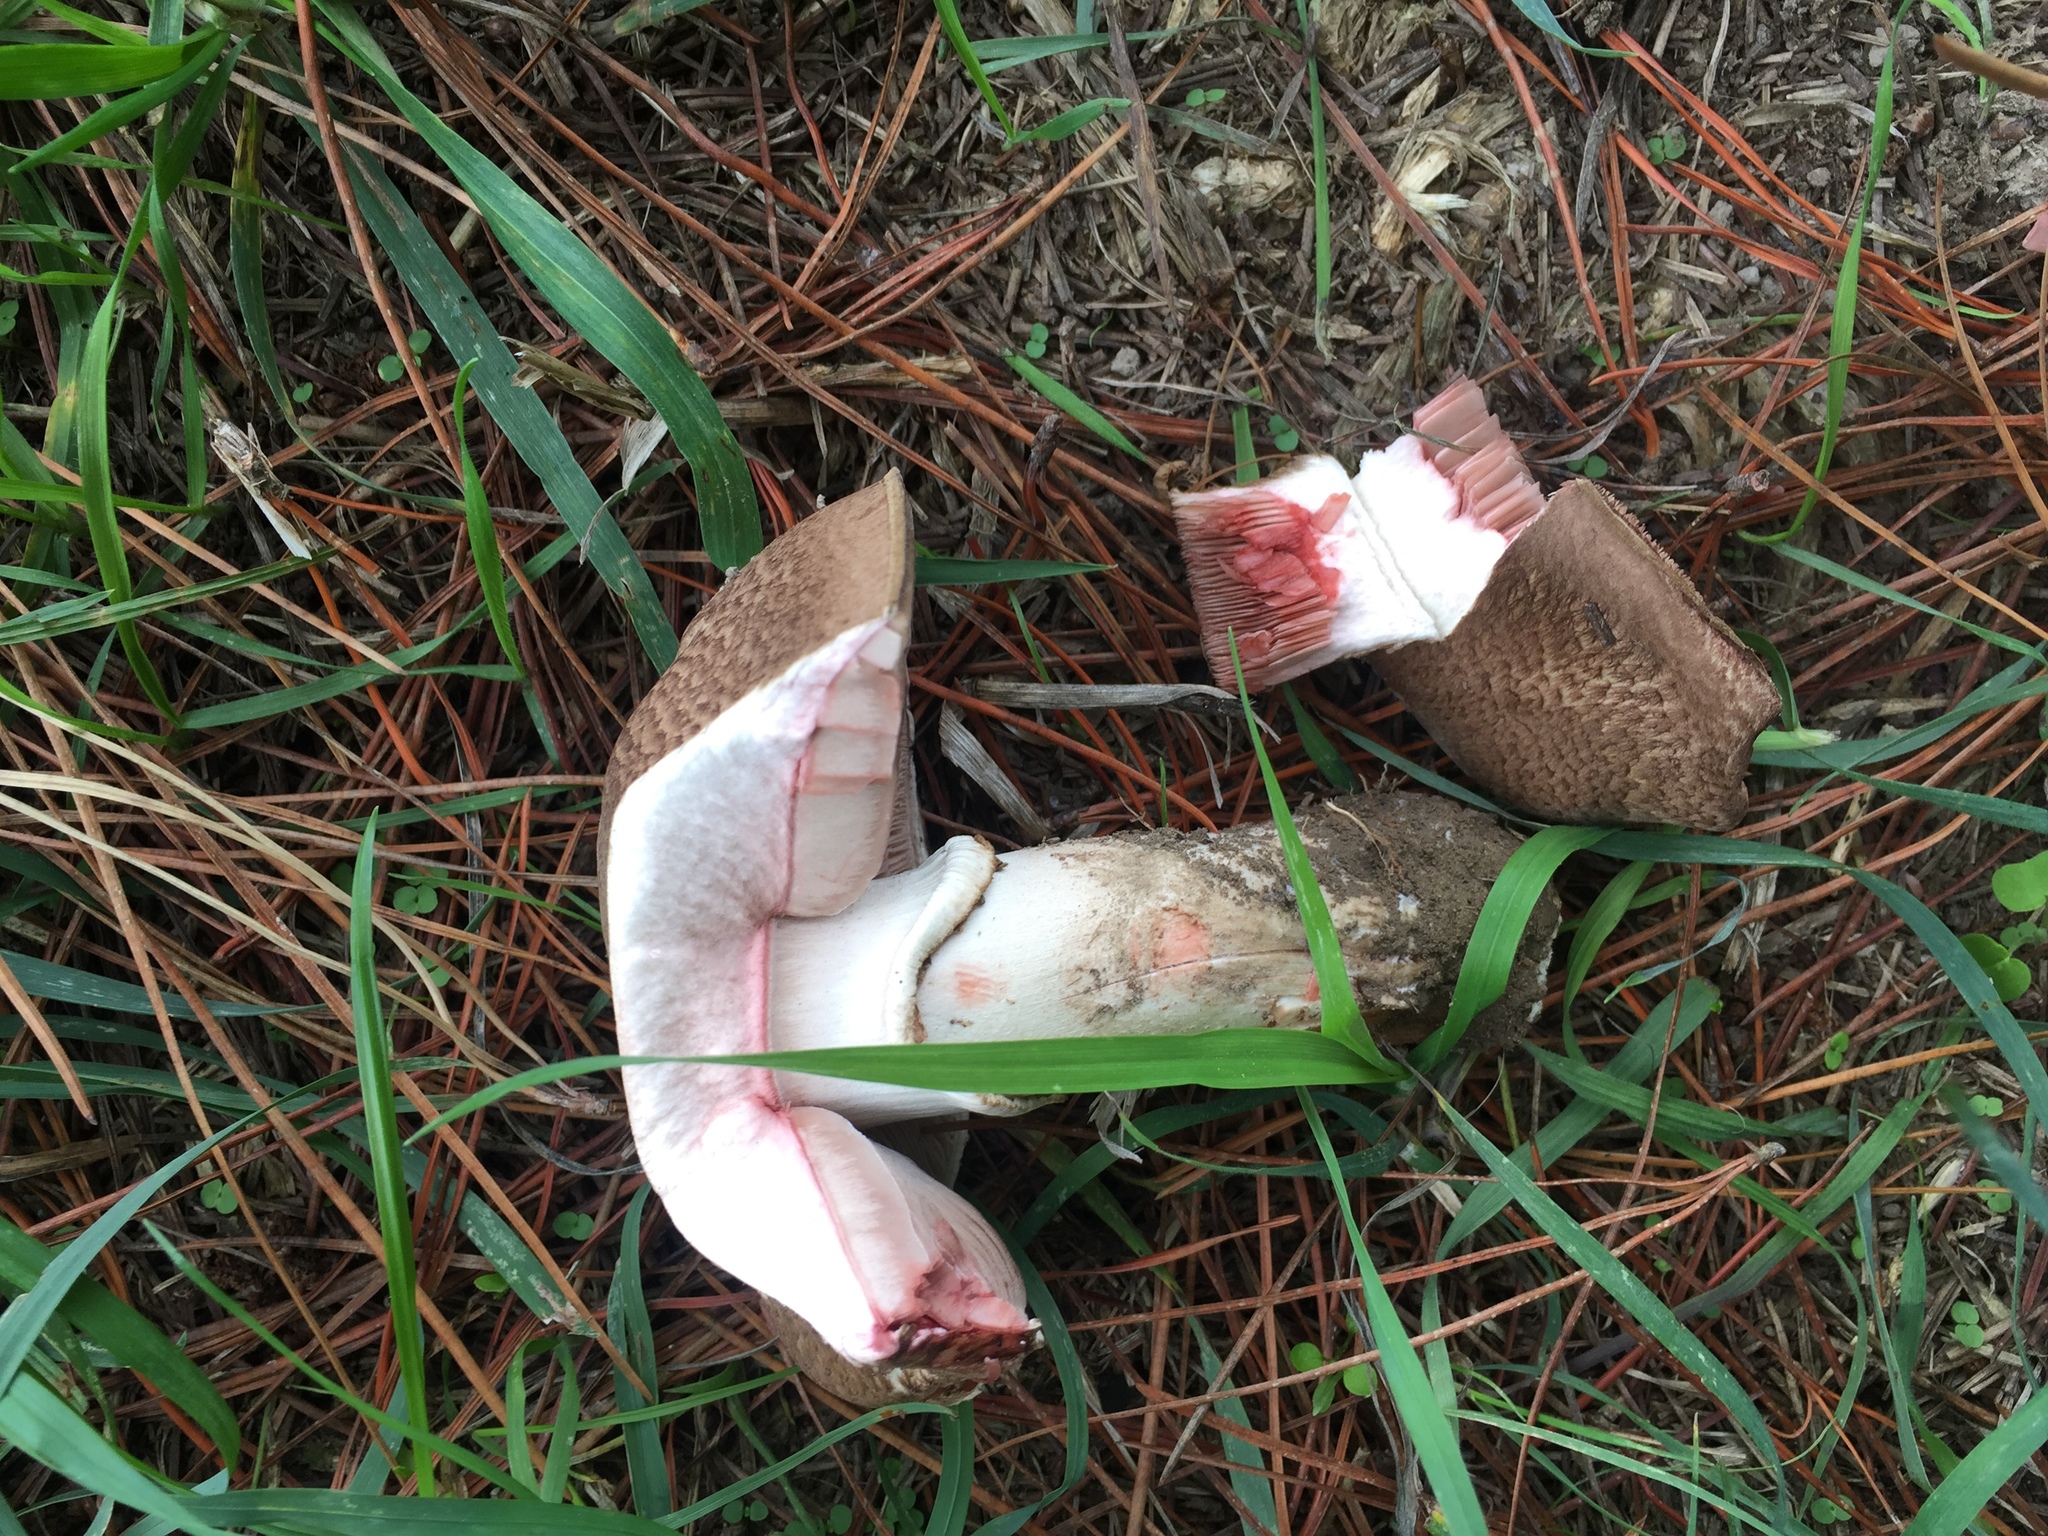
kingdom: Fungi
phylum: Basidiomycota
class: Agaricomycetes
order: Agaricales
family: Agaricaceae
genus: Agaricus
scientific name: Agaricus sylvaticus
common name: Blushing wood mushroom
